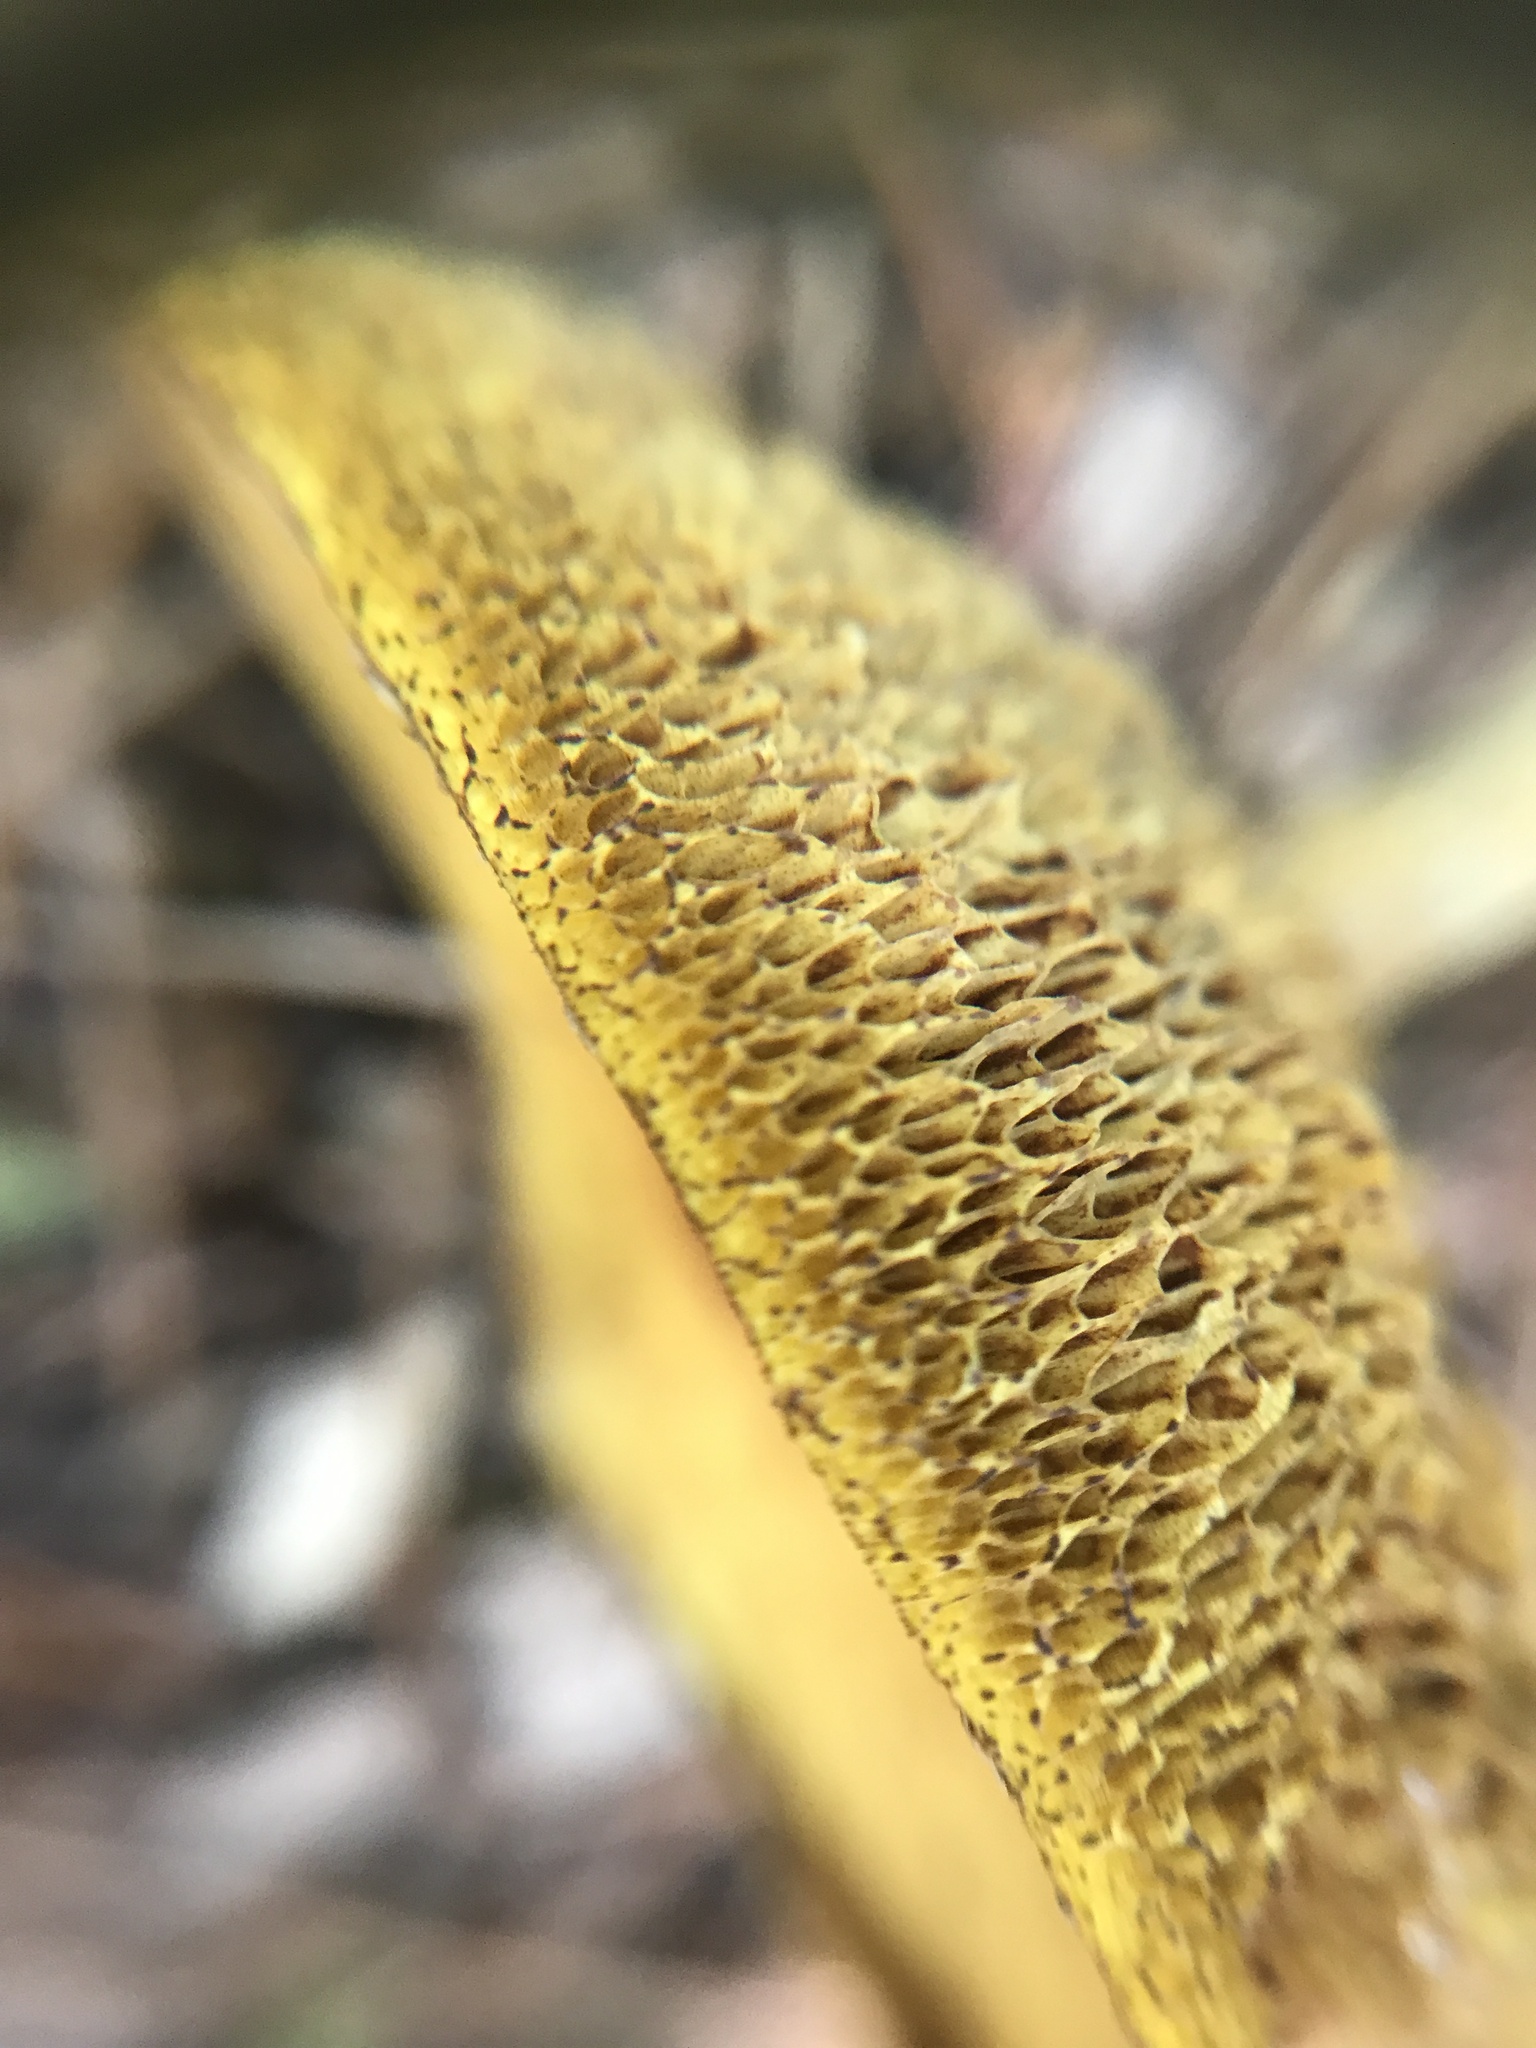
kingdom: Fungi
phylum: Basidiomycota
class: Agaricomycetes
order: Boletales
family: Suillaceae
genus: Suillus
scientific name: Suillus americanus
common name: Chicken fat mushroom
